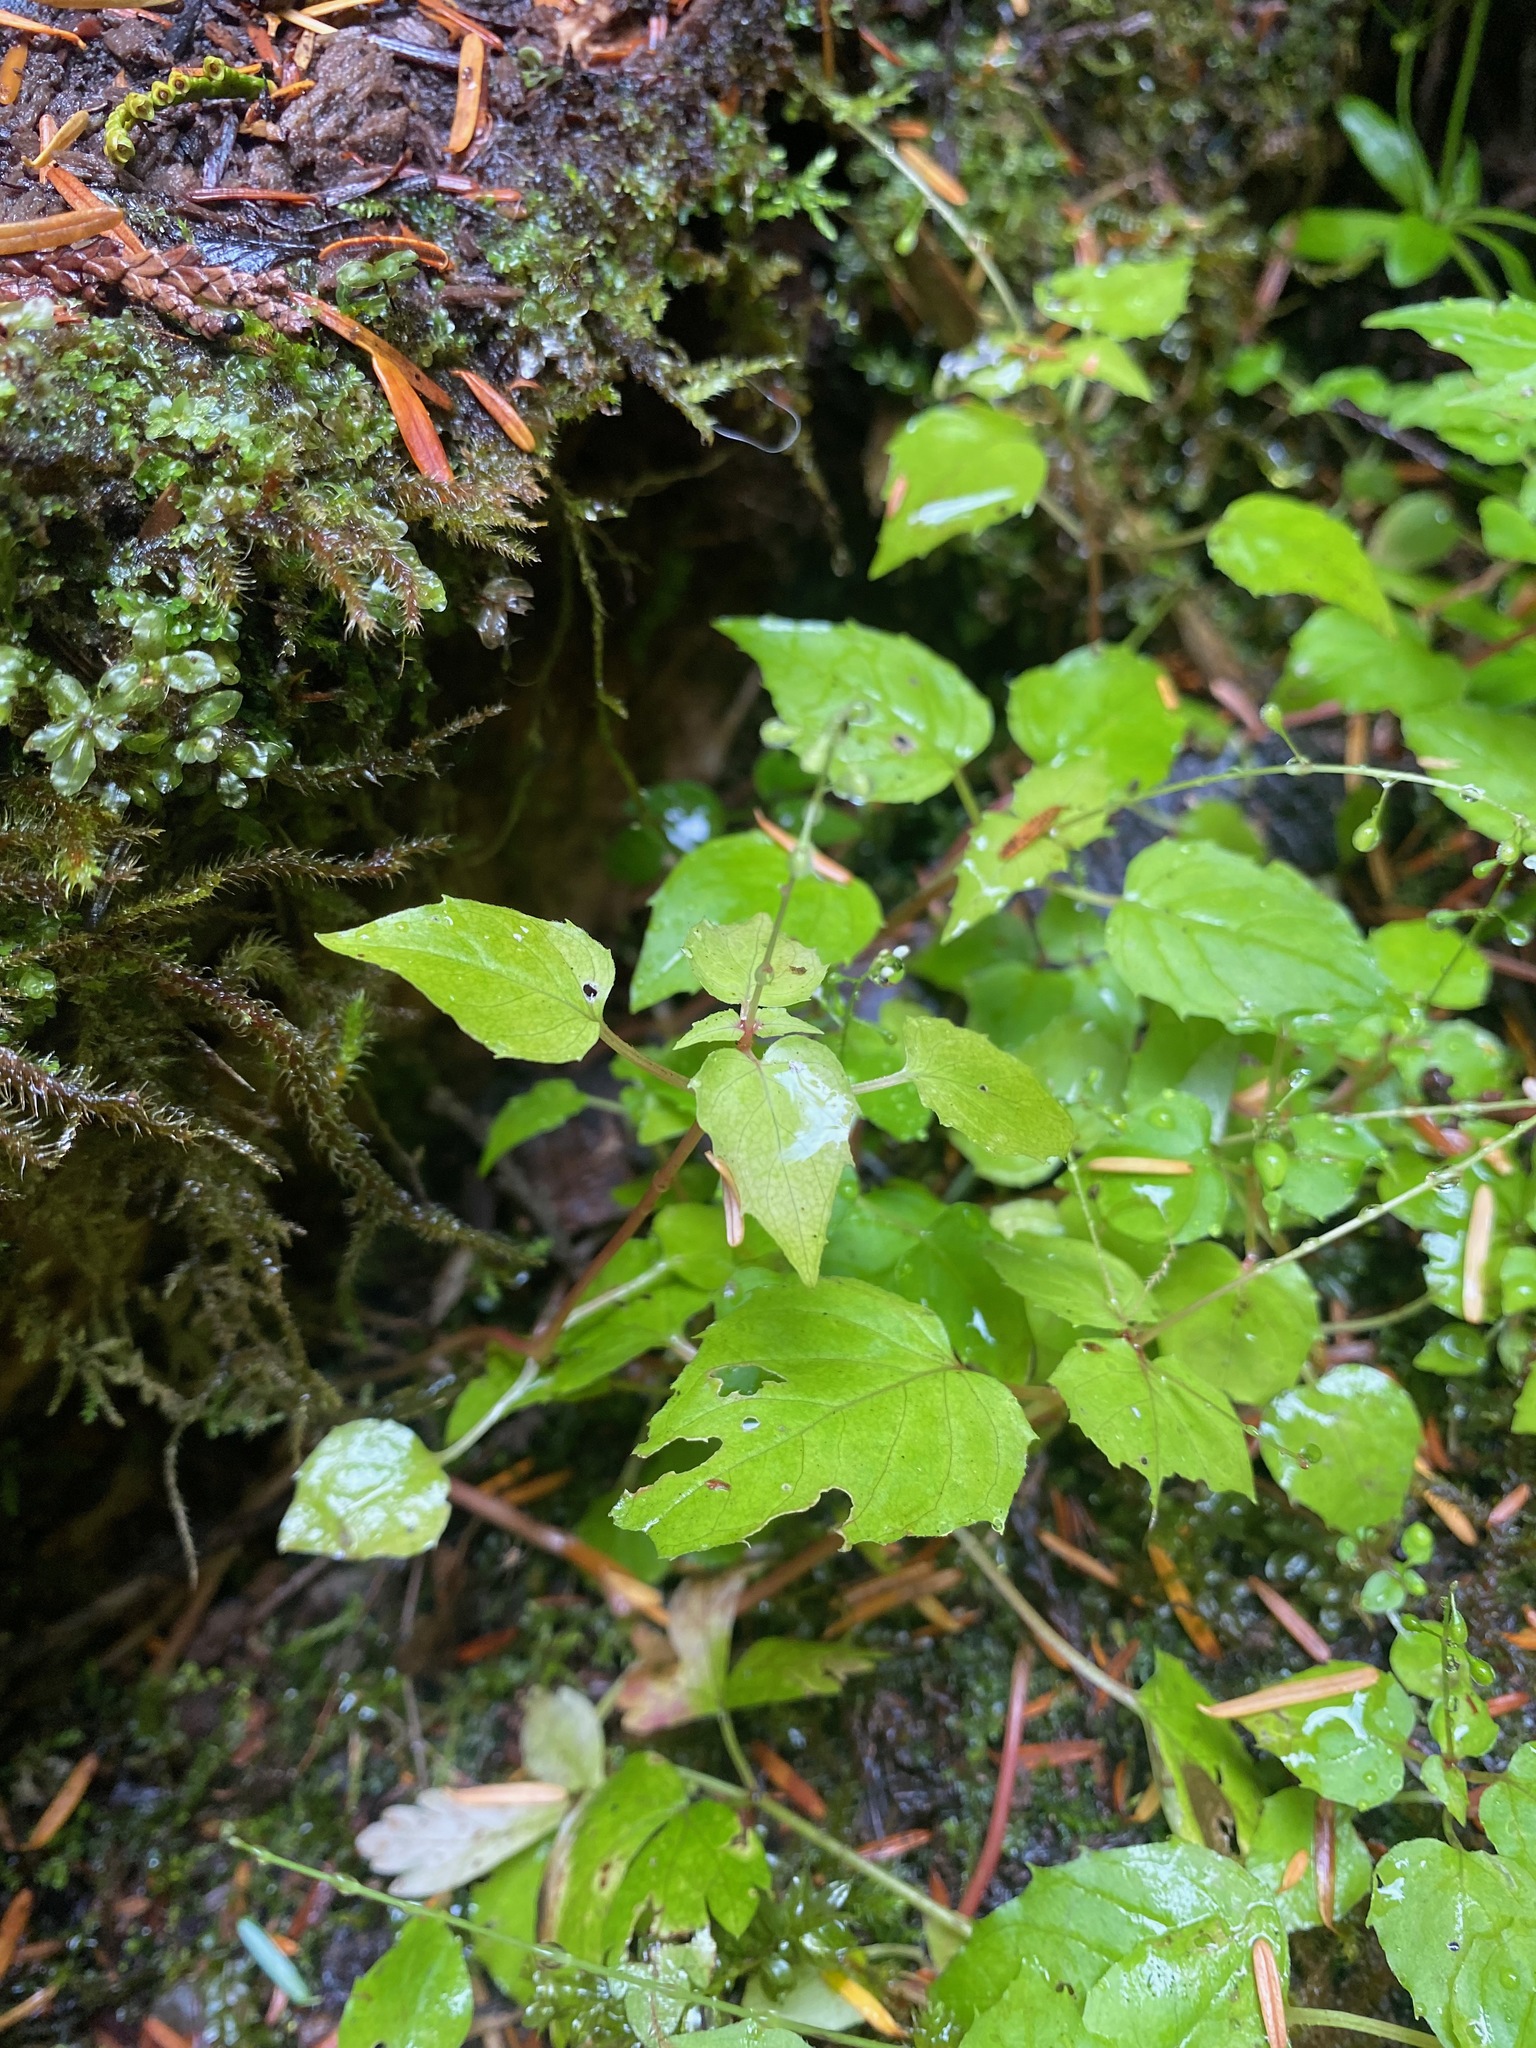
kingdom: Plantae
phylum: Tracheophyta
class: Magnoliopsida
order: Myrtales
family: Onagraceae
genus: Circaea
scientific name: Circaea alpina
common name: Alpine enchanter's-nightshade
